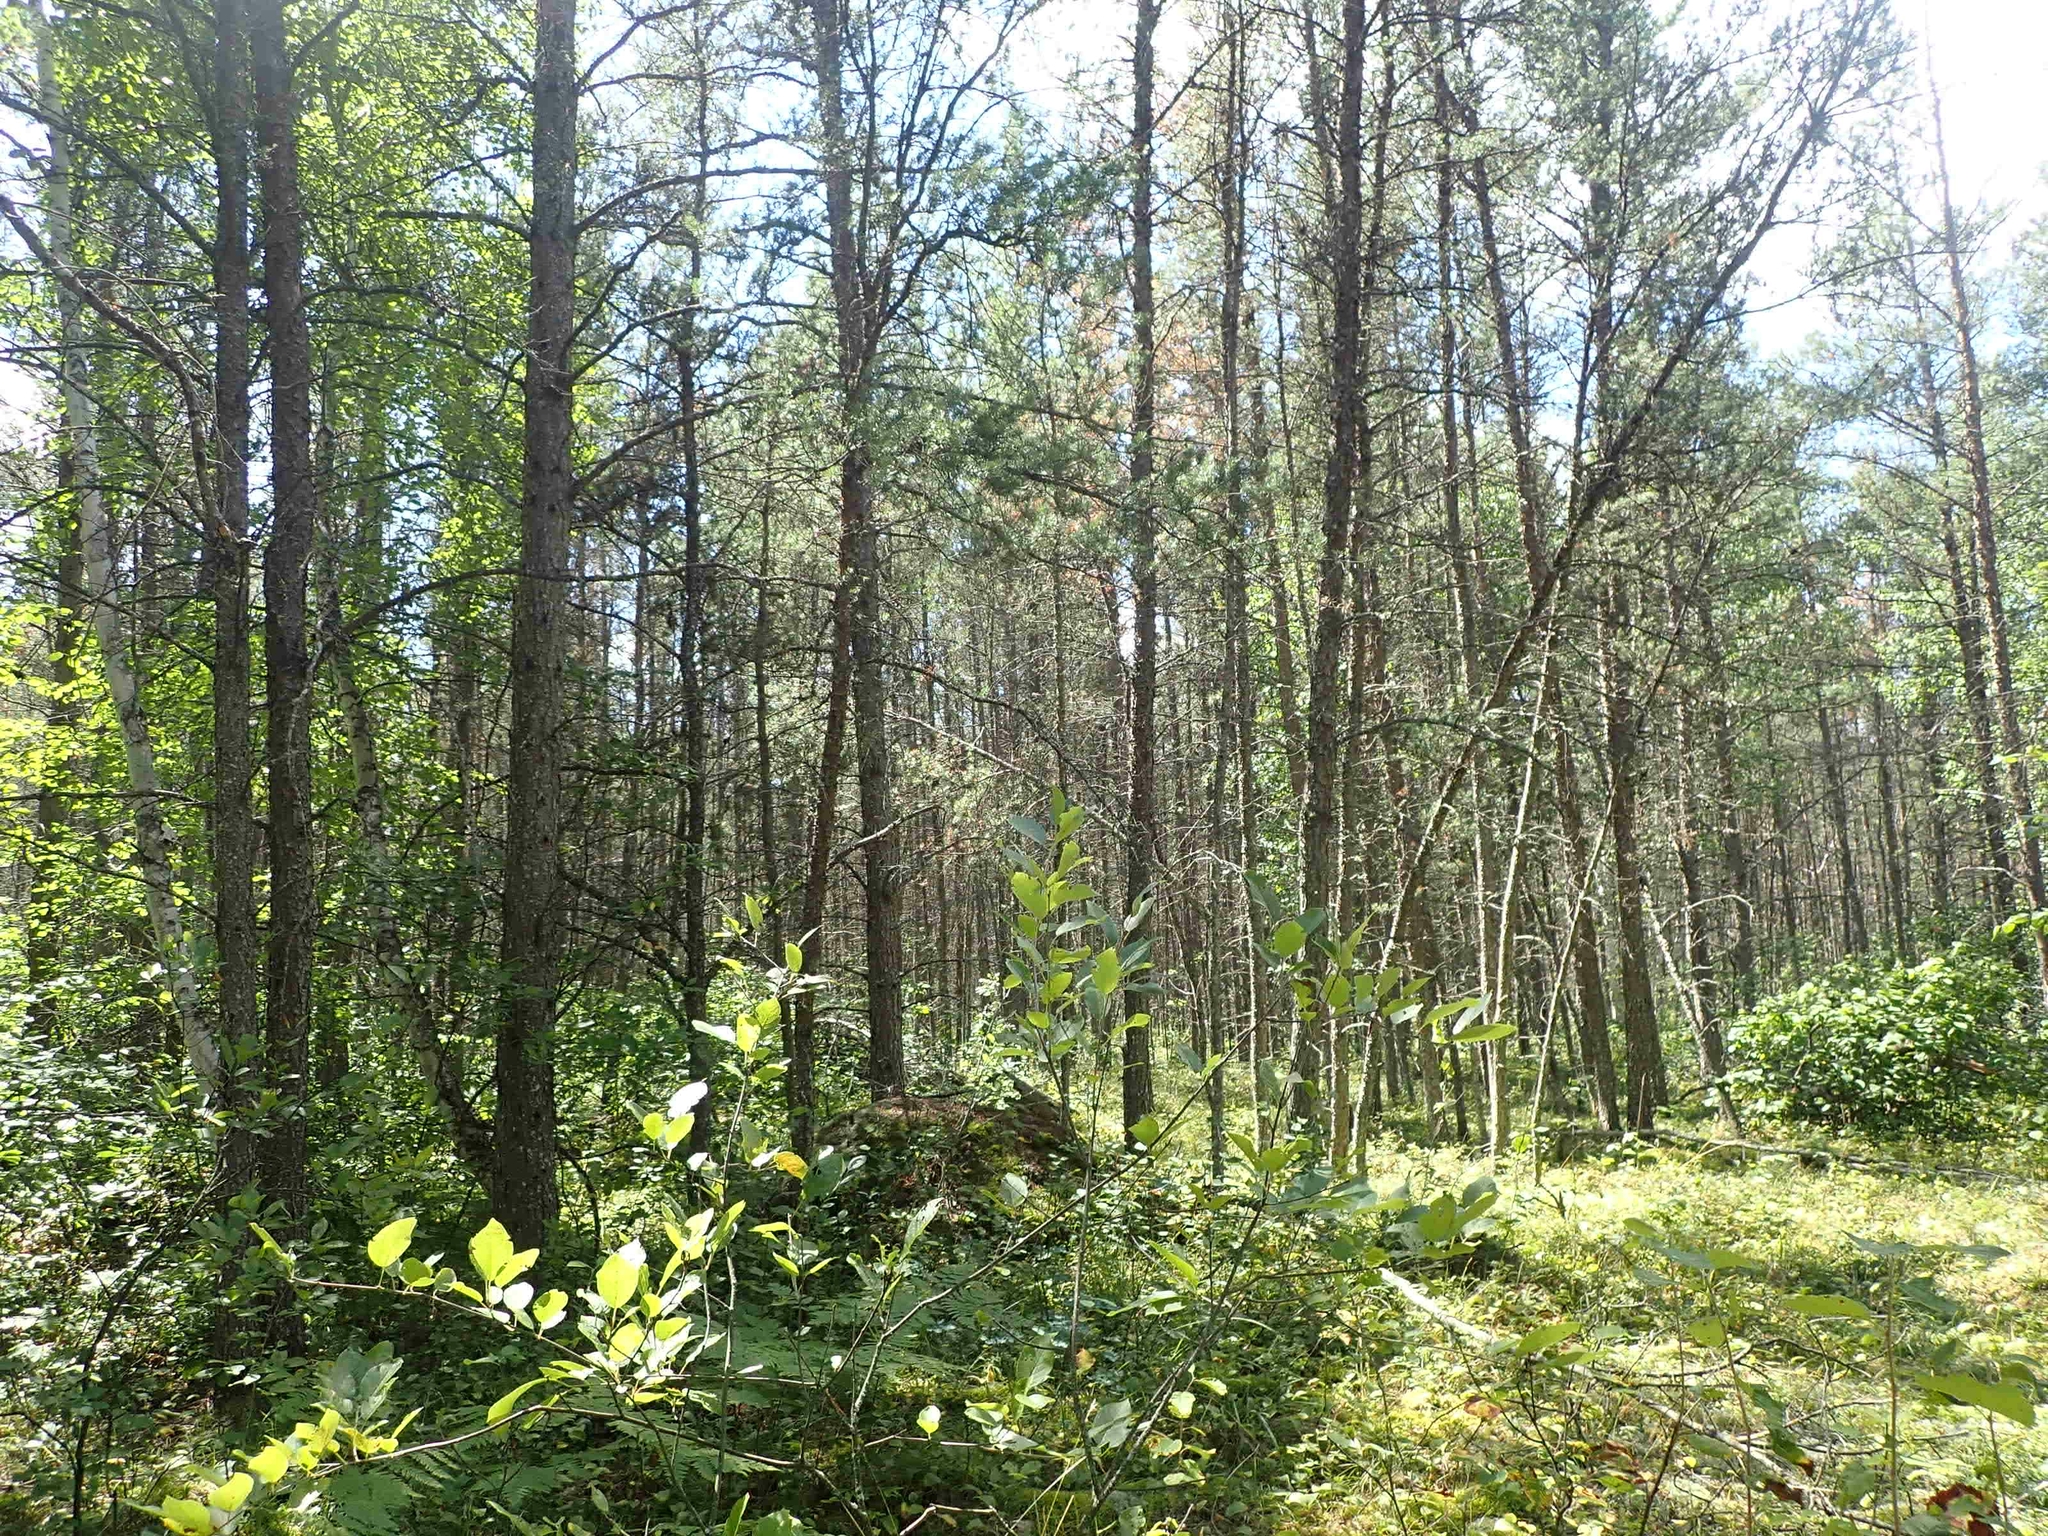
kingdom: Plantae
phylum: Tracheophyta
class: Pinopsida
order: Pinales
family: Pinaceae
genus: Pinus
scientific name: Pinus banksiana
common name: Jack pine
